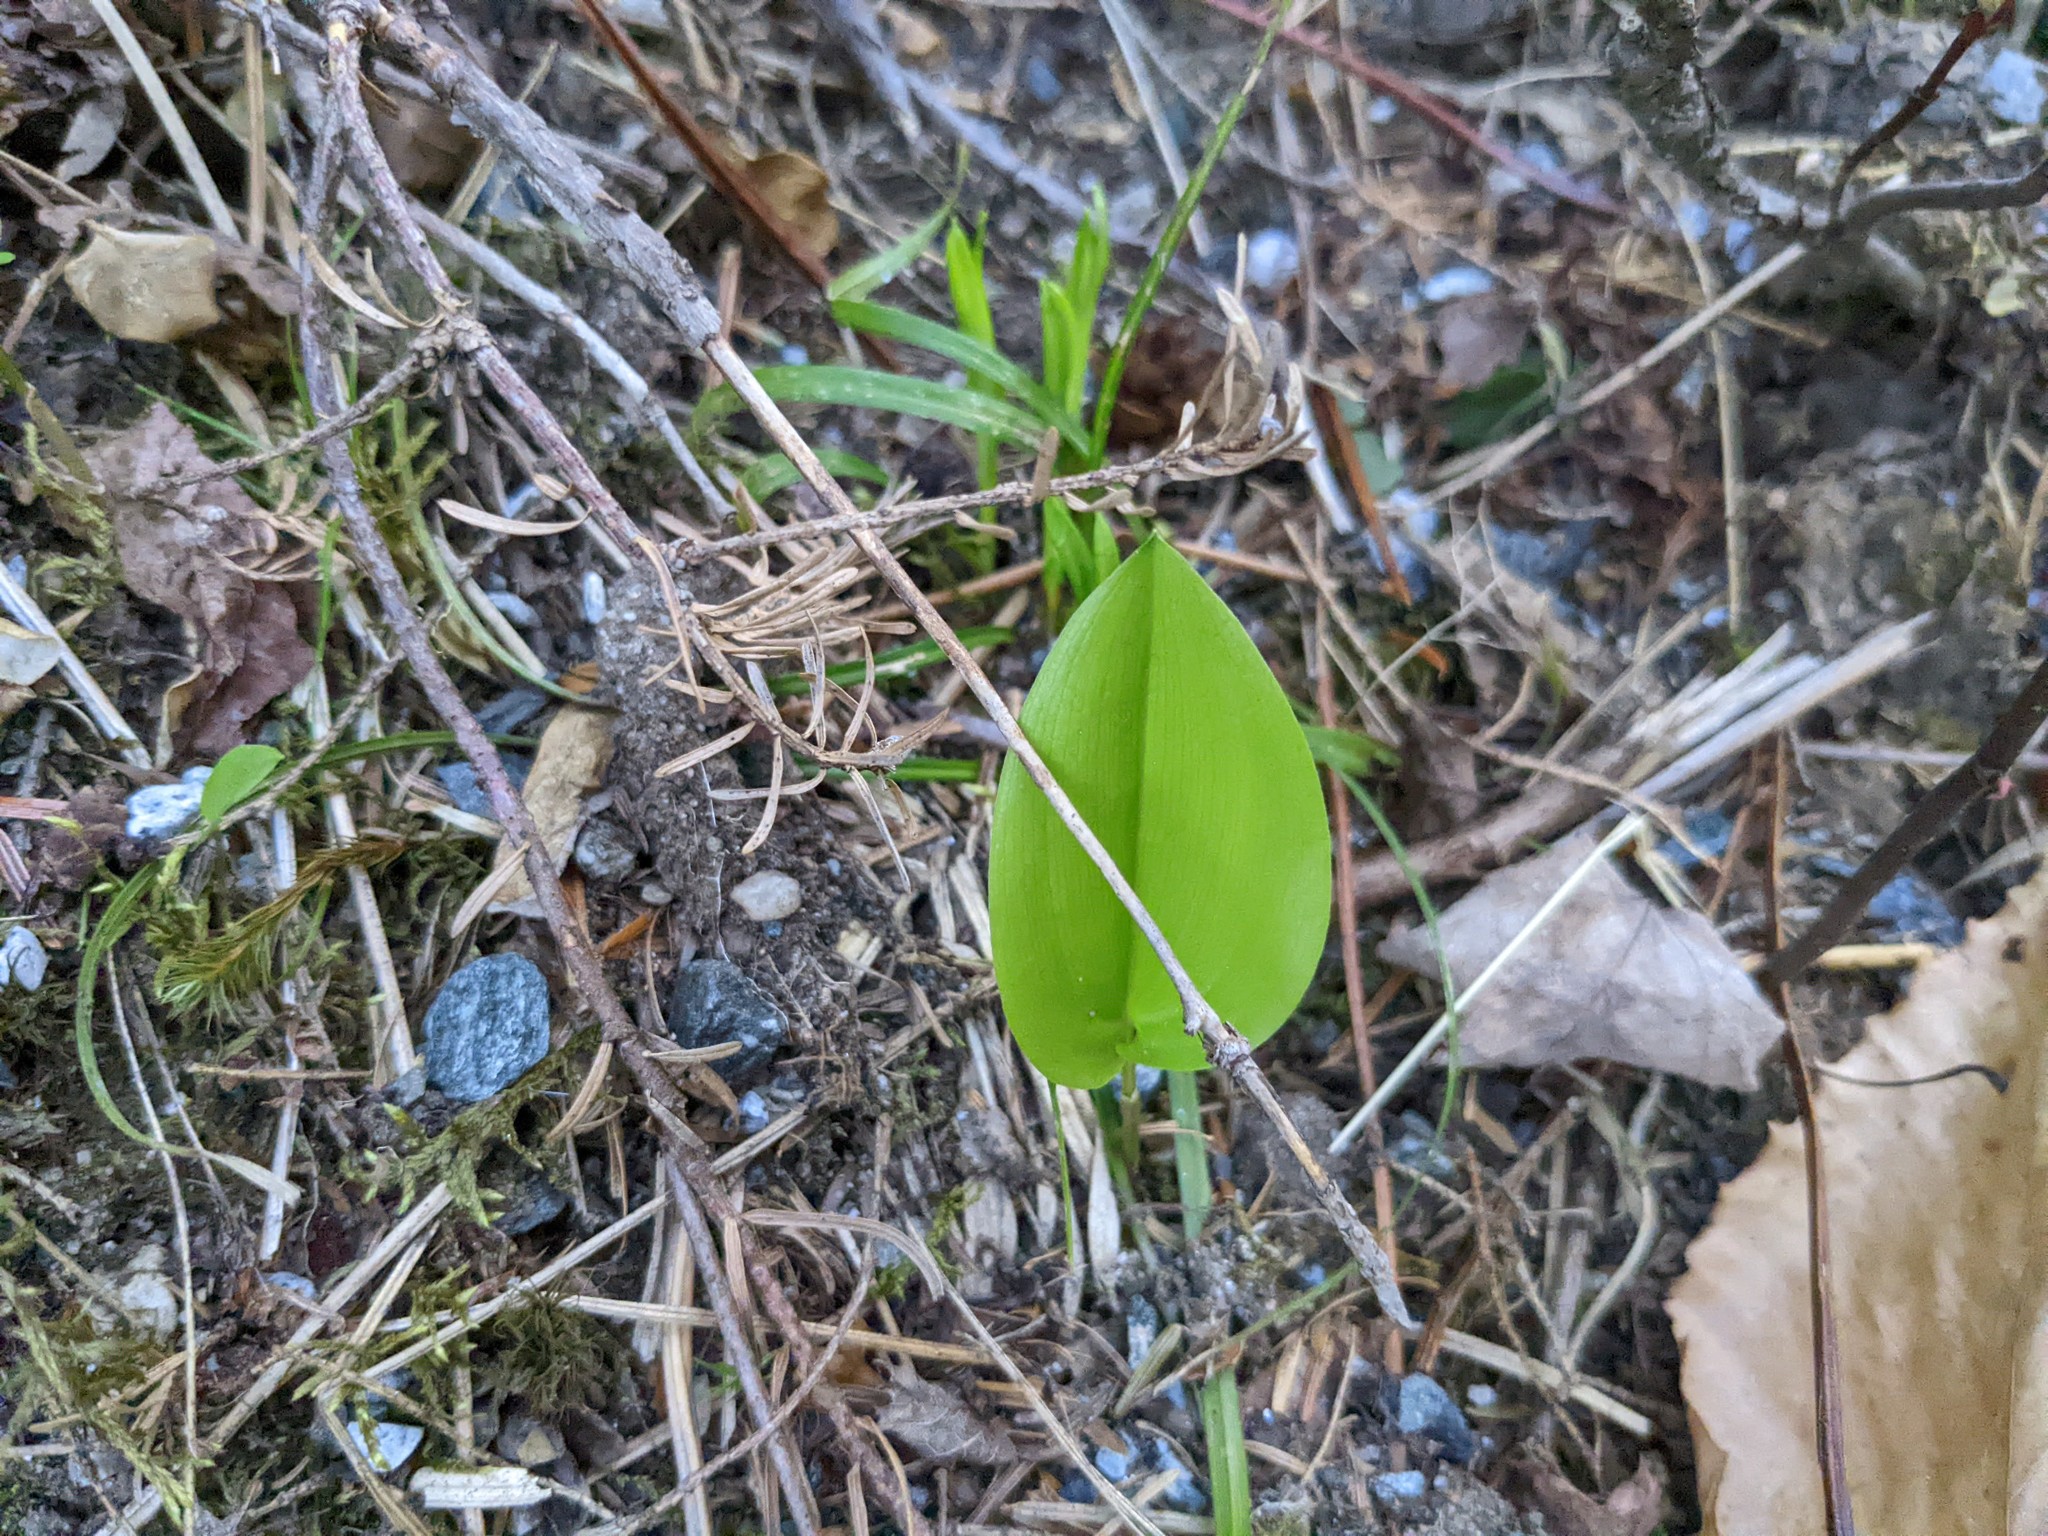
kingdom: Plantae
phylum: Tracheophyta
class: Liliopsida
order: Asparagales
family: Asparagaceae
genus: Maianthemum
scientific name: Maianthemum canadense
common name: False lily-of-the-valley
